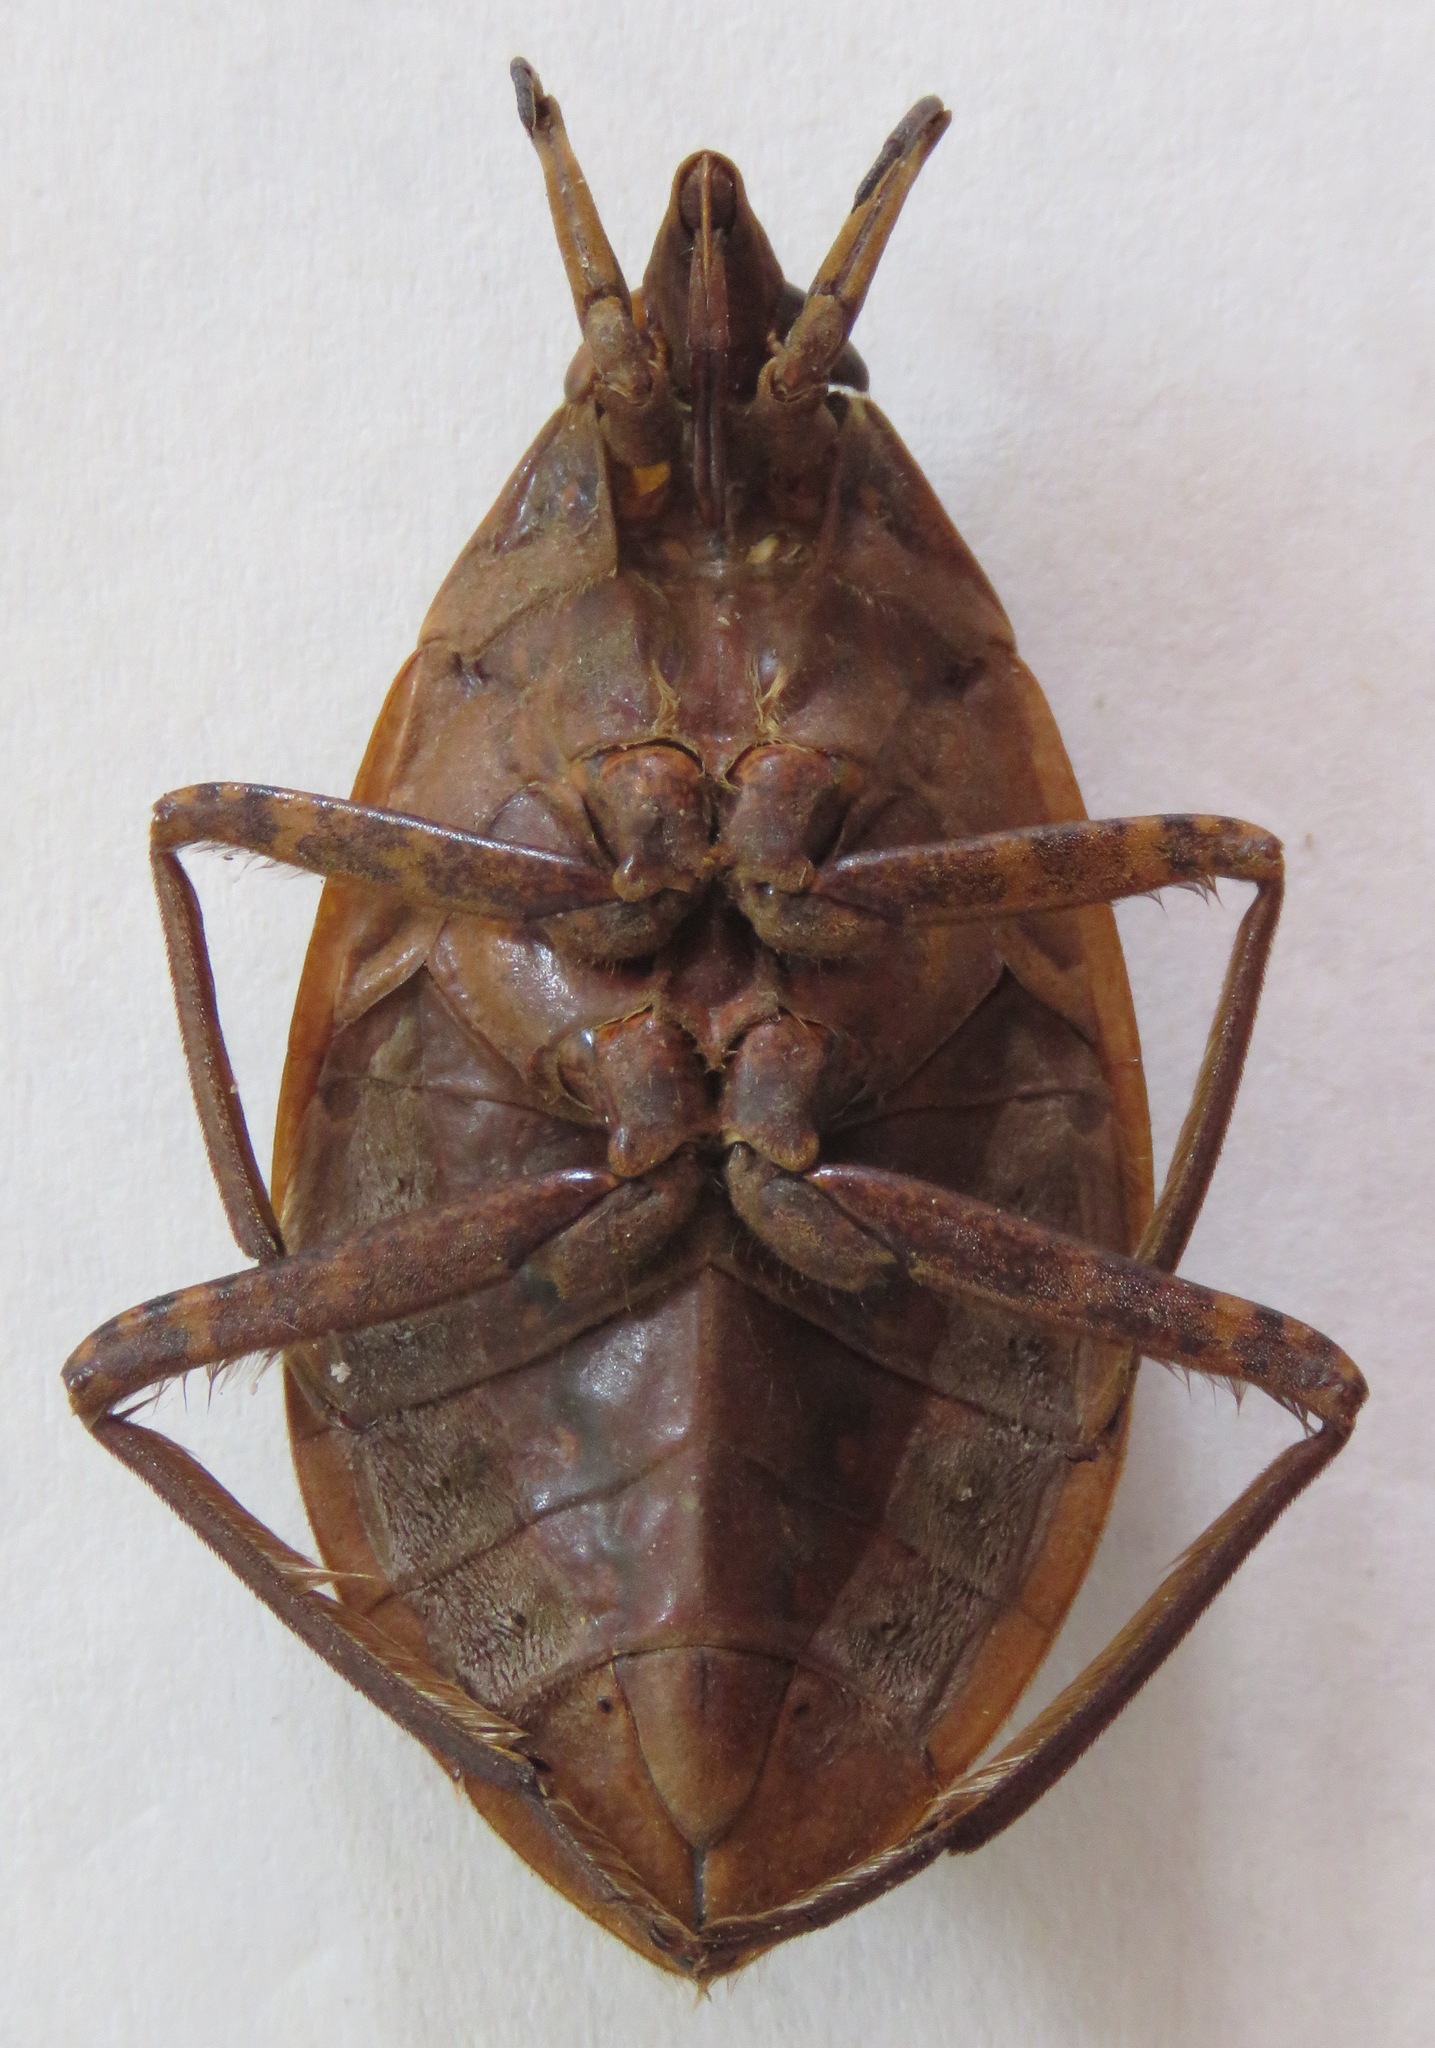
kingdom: Animalia
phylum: Arthropoda
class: Insecta
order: Hemiptera
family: Belostomatidae
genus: Belostoma
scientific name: Belostoma dilatatum
